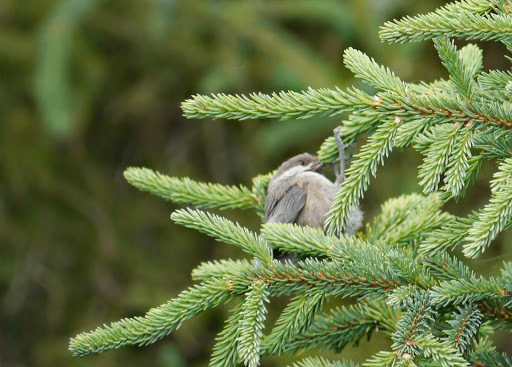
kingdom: Animalia
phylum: Chordata
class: Aves
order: Passeriformes
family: Paridae
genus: Poecile
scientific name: Poecile hudsonicus
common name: Boreal chickadee
